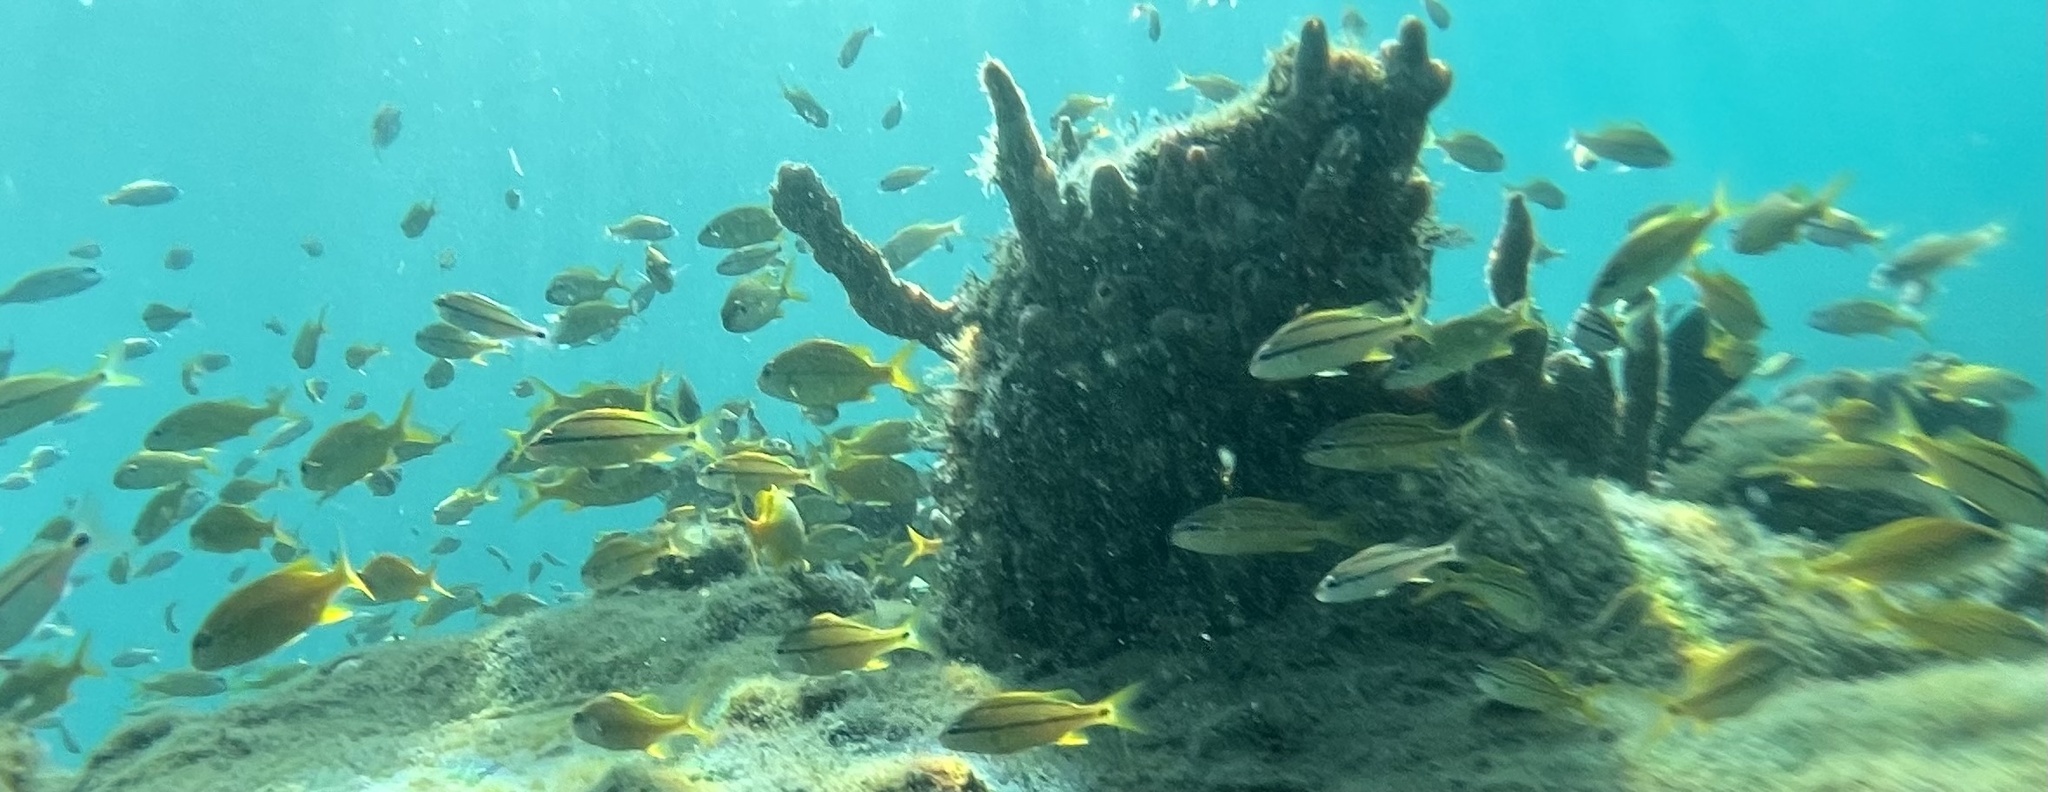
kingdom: Animalia
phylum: Chordata
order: Perciformes
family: Haemulidae
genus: Haemulon
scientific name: Haemulon flavolineatum
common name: French grunt
